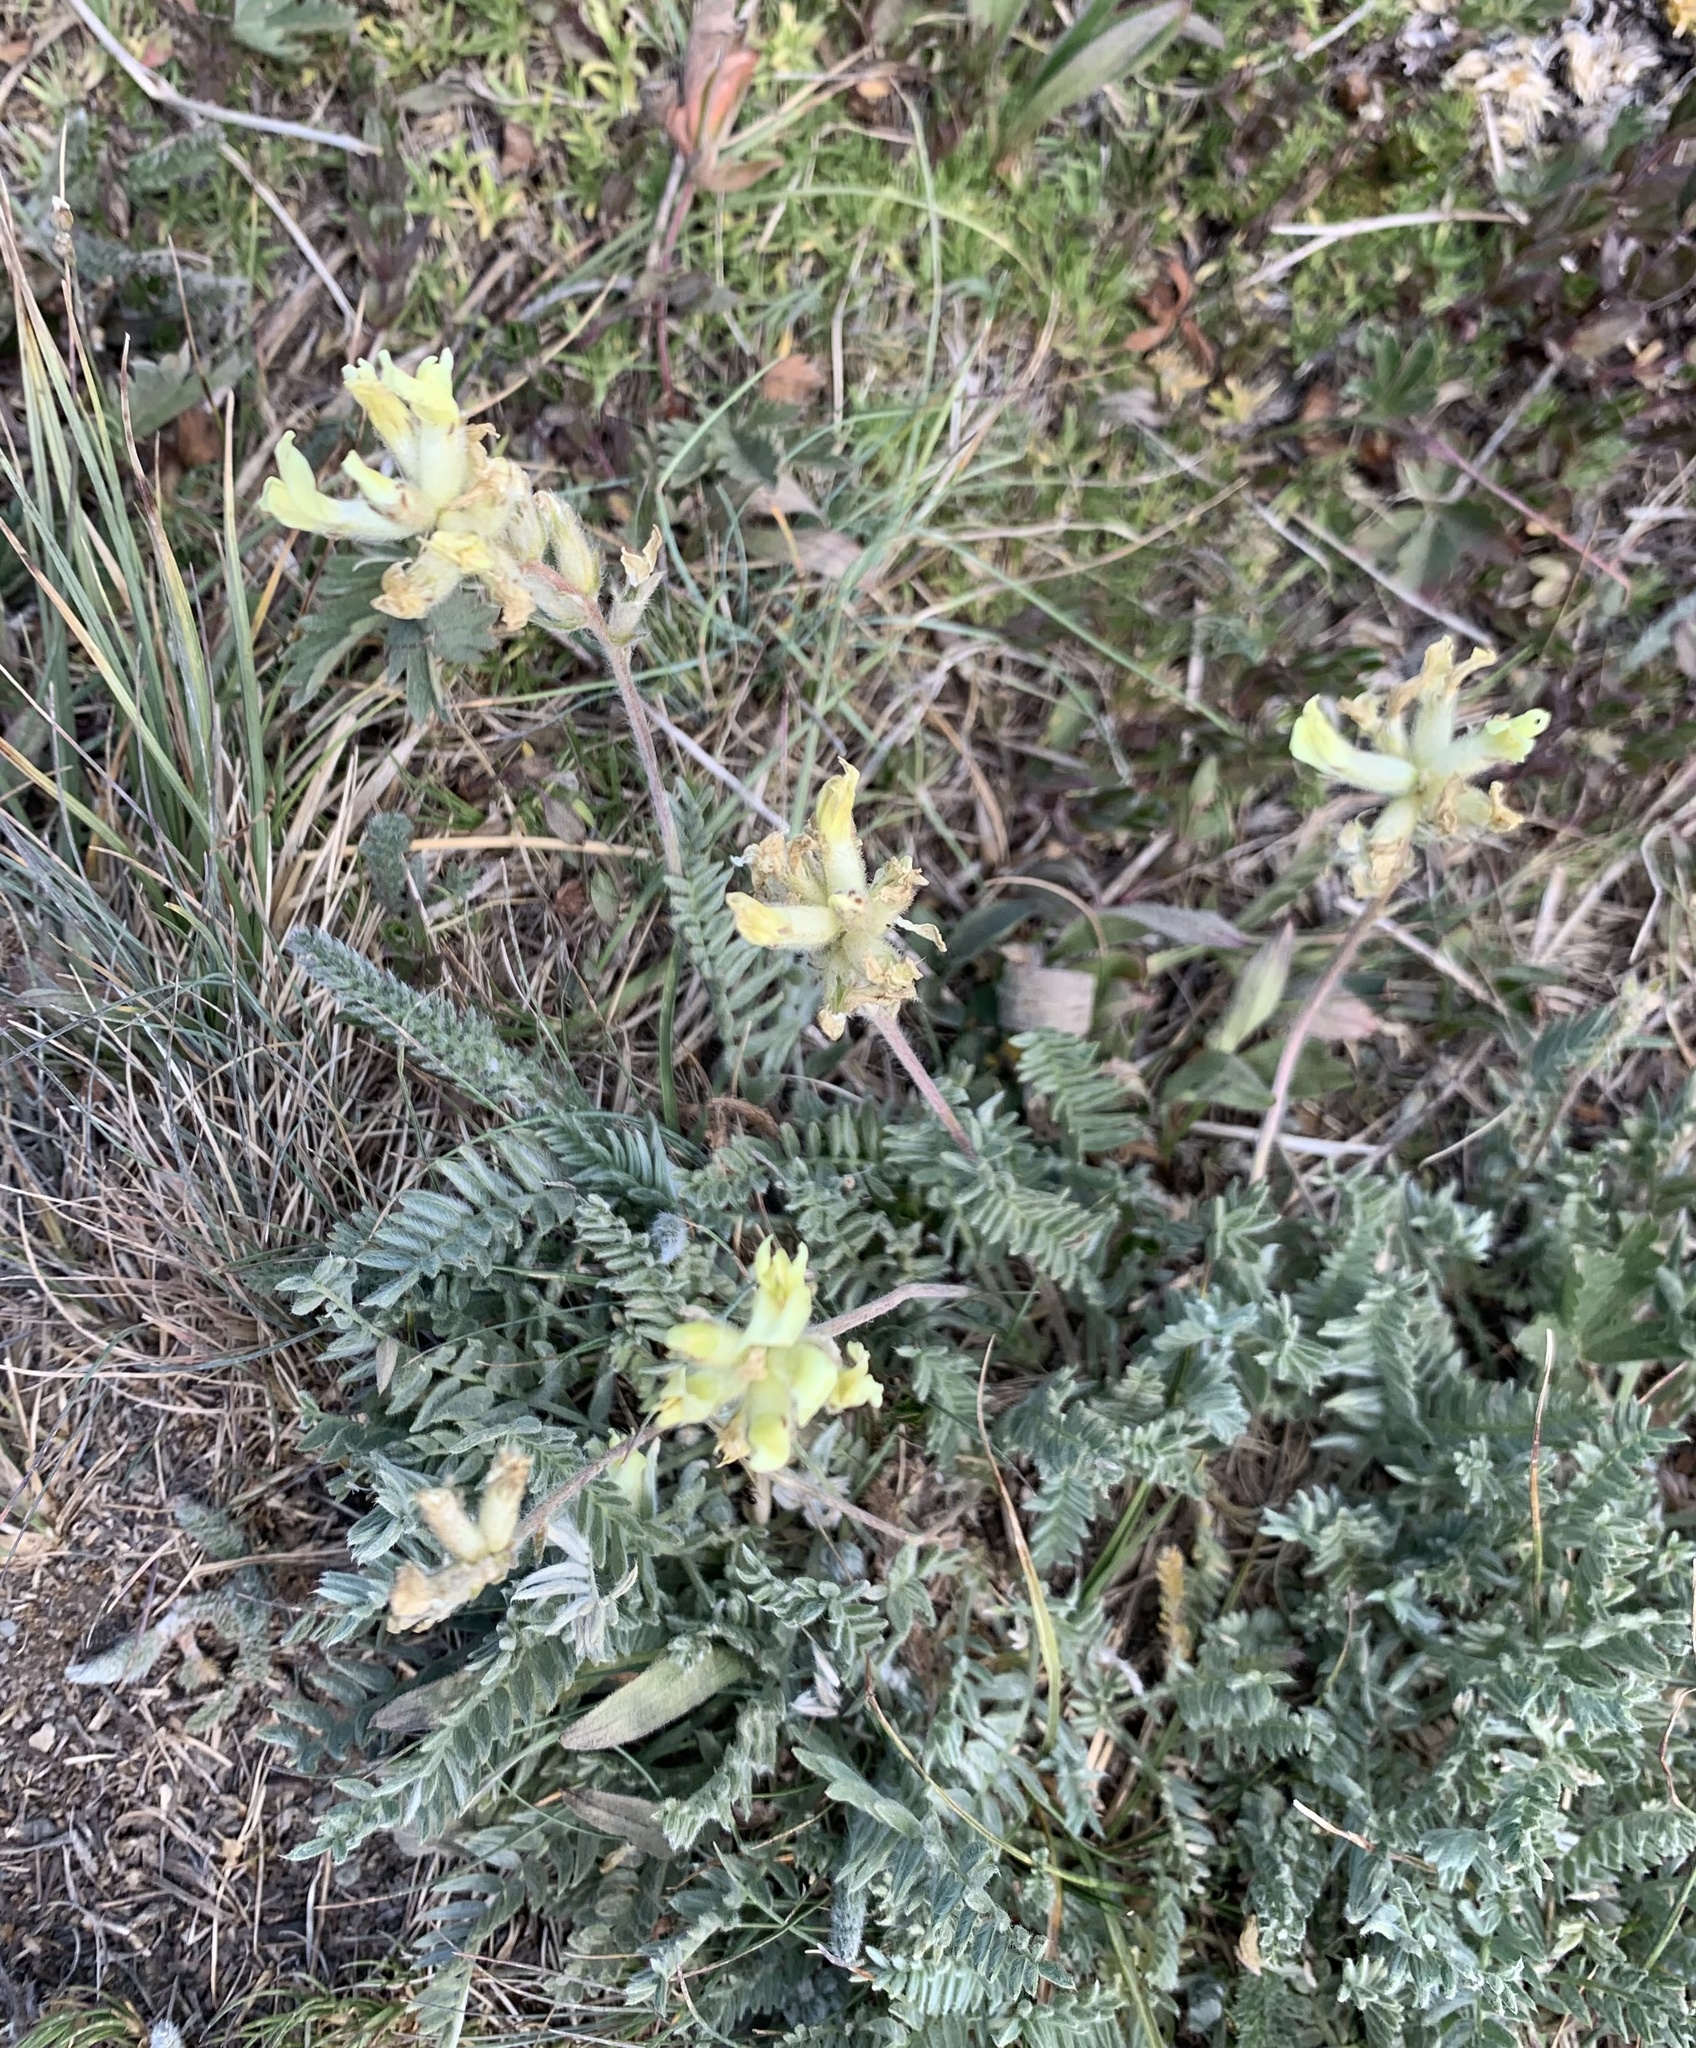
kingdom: Plantae
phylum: Tracheophyta
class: Magnoliopsida
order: Fabales
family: Fabaceae
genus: Oxytropis
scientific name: Oxytropis campestris
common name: Field locoweed
